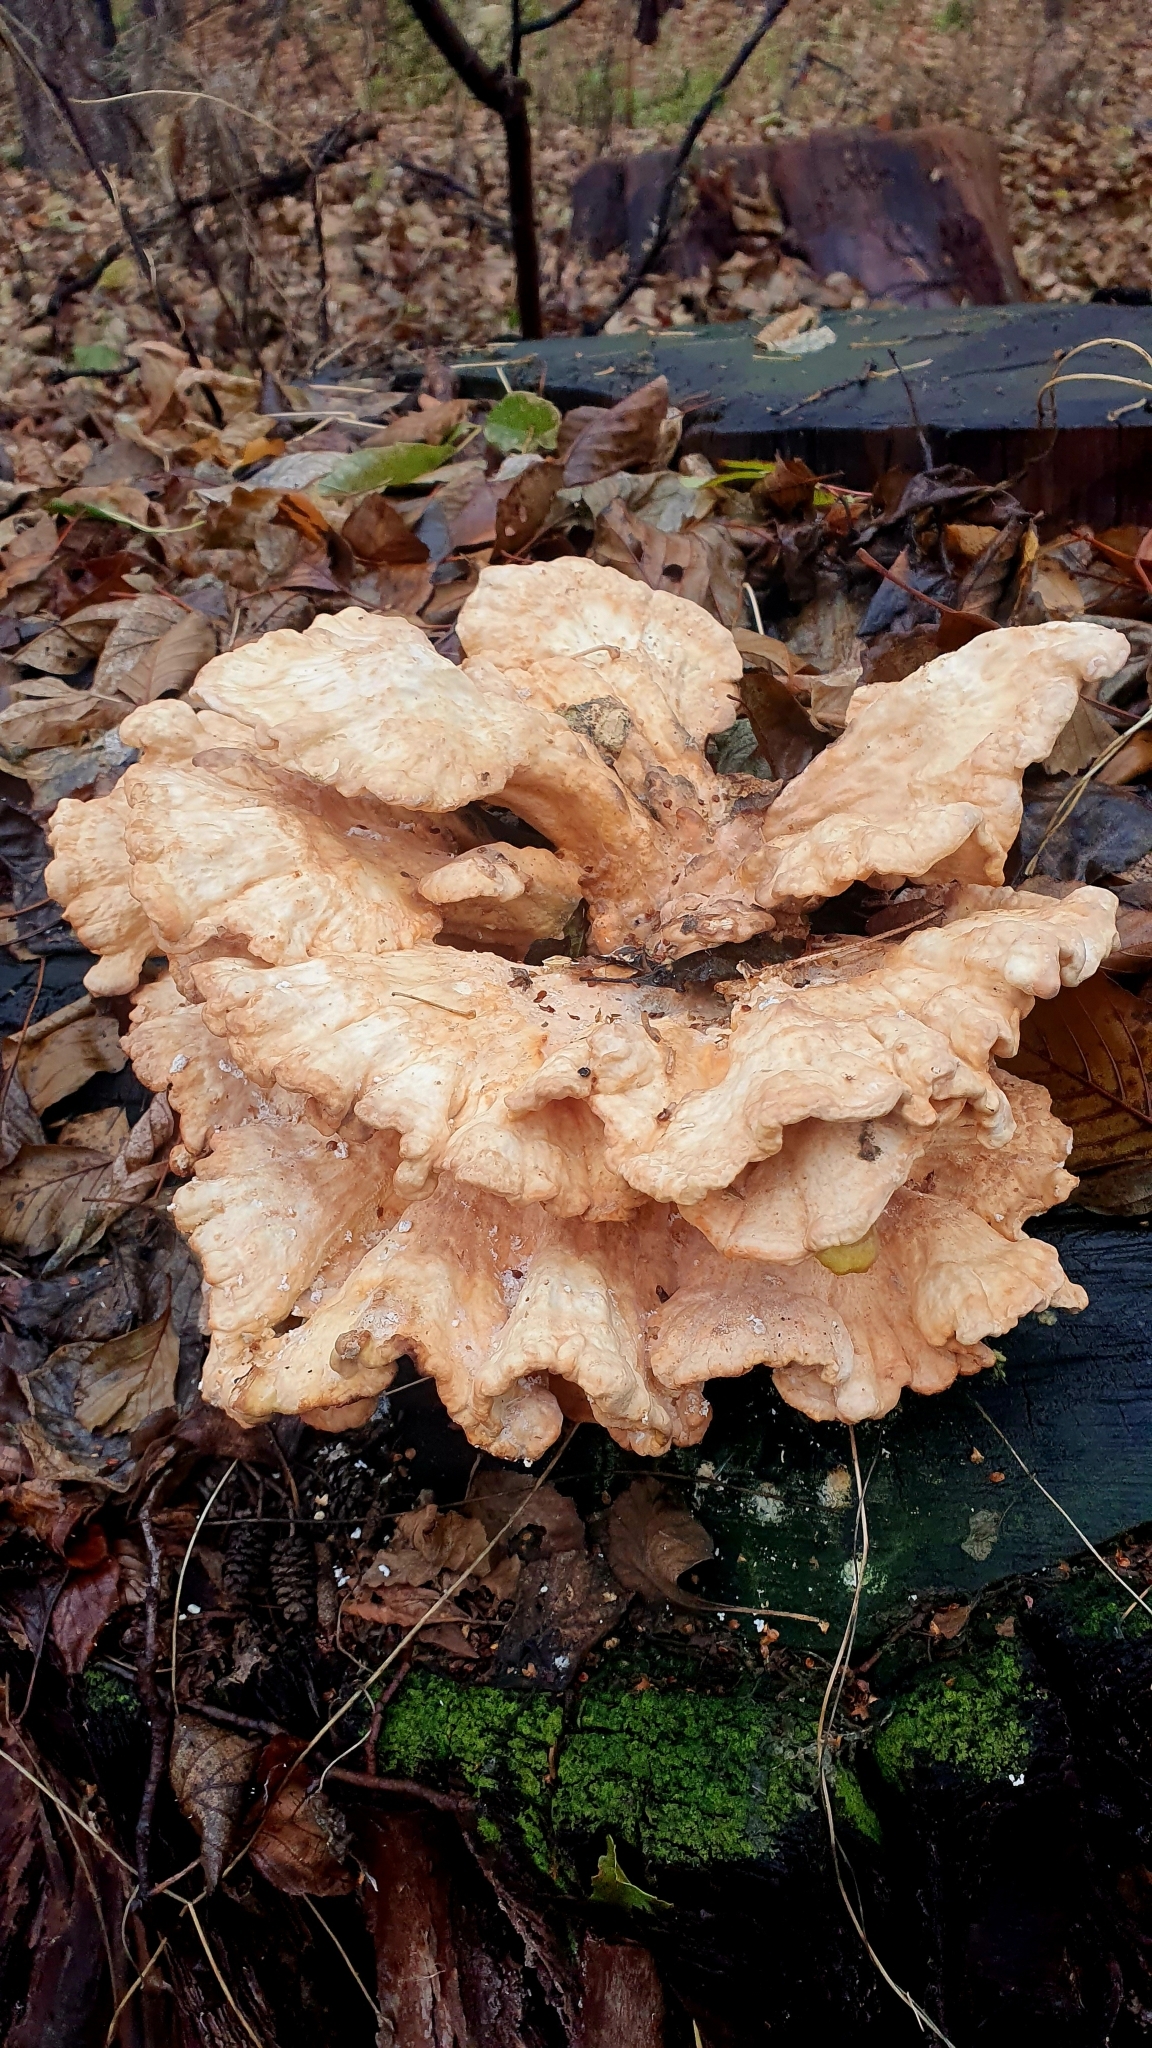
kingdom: Fungi
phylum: Basidiomycota
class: Agaricomycetes
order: Polyporales
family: Laetiporaceae
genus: Laetiporus
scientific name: Laetiporus sulphureus
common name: Chicken of the woods
